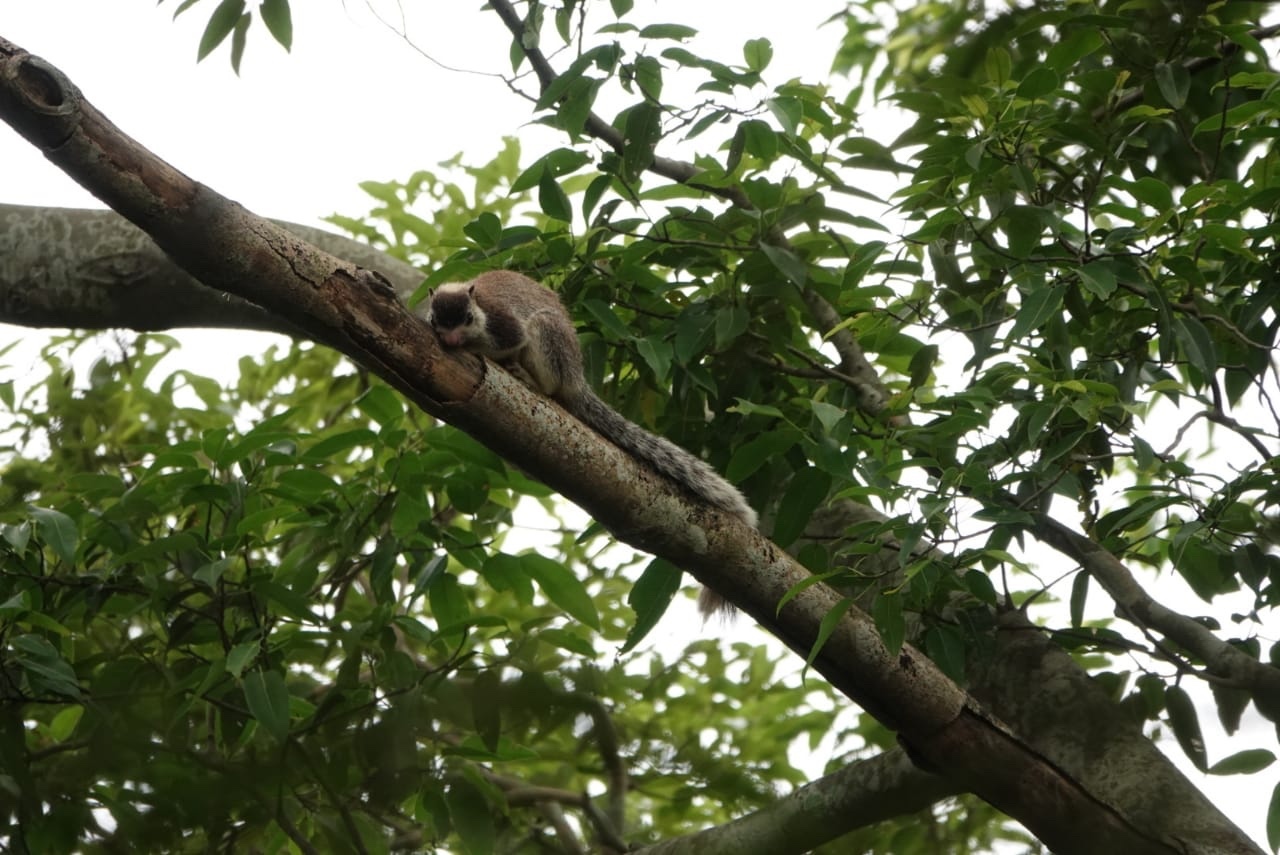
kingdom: Animalia
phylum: Chordata
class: Mammalia
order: Rodentia
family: Sciuridae
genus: Ratufa
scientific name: Ratufa macroura
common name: Sri lankan giant squirrel
